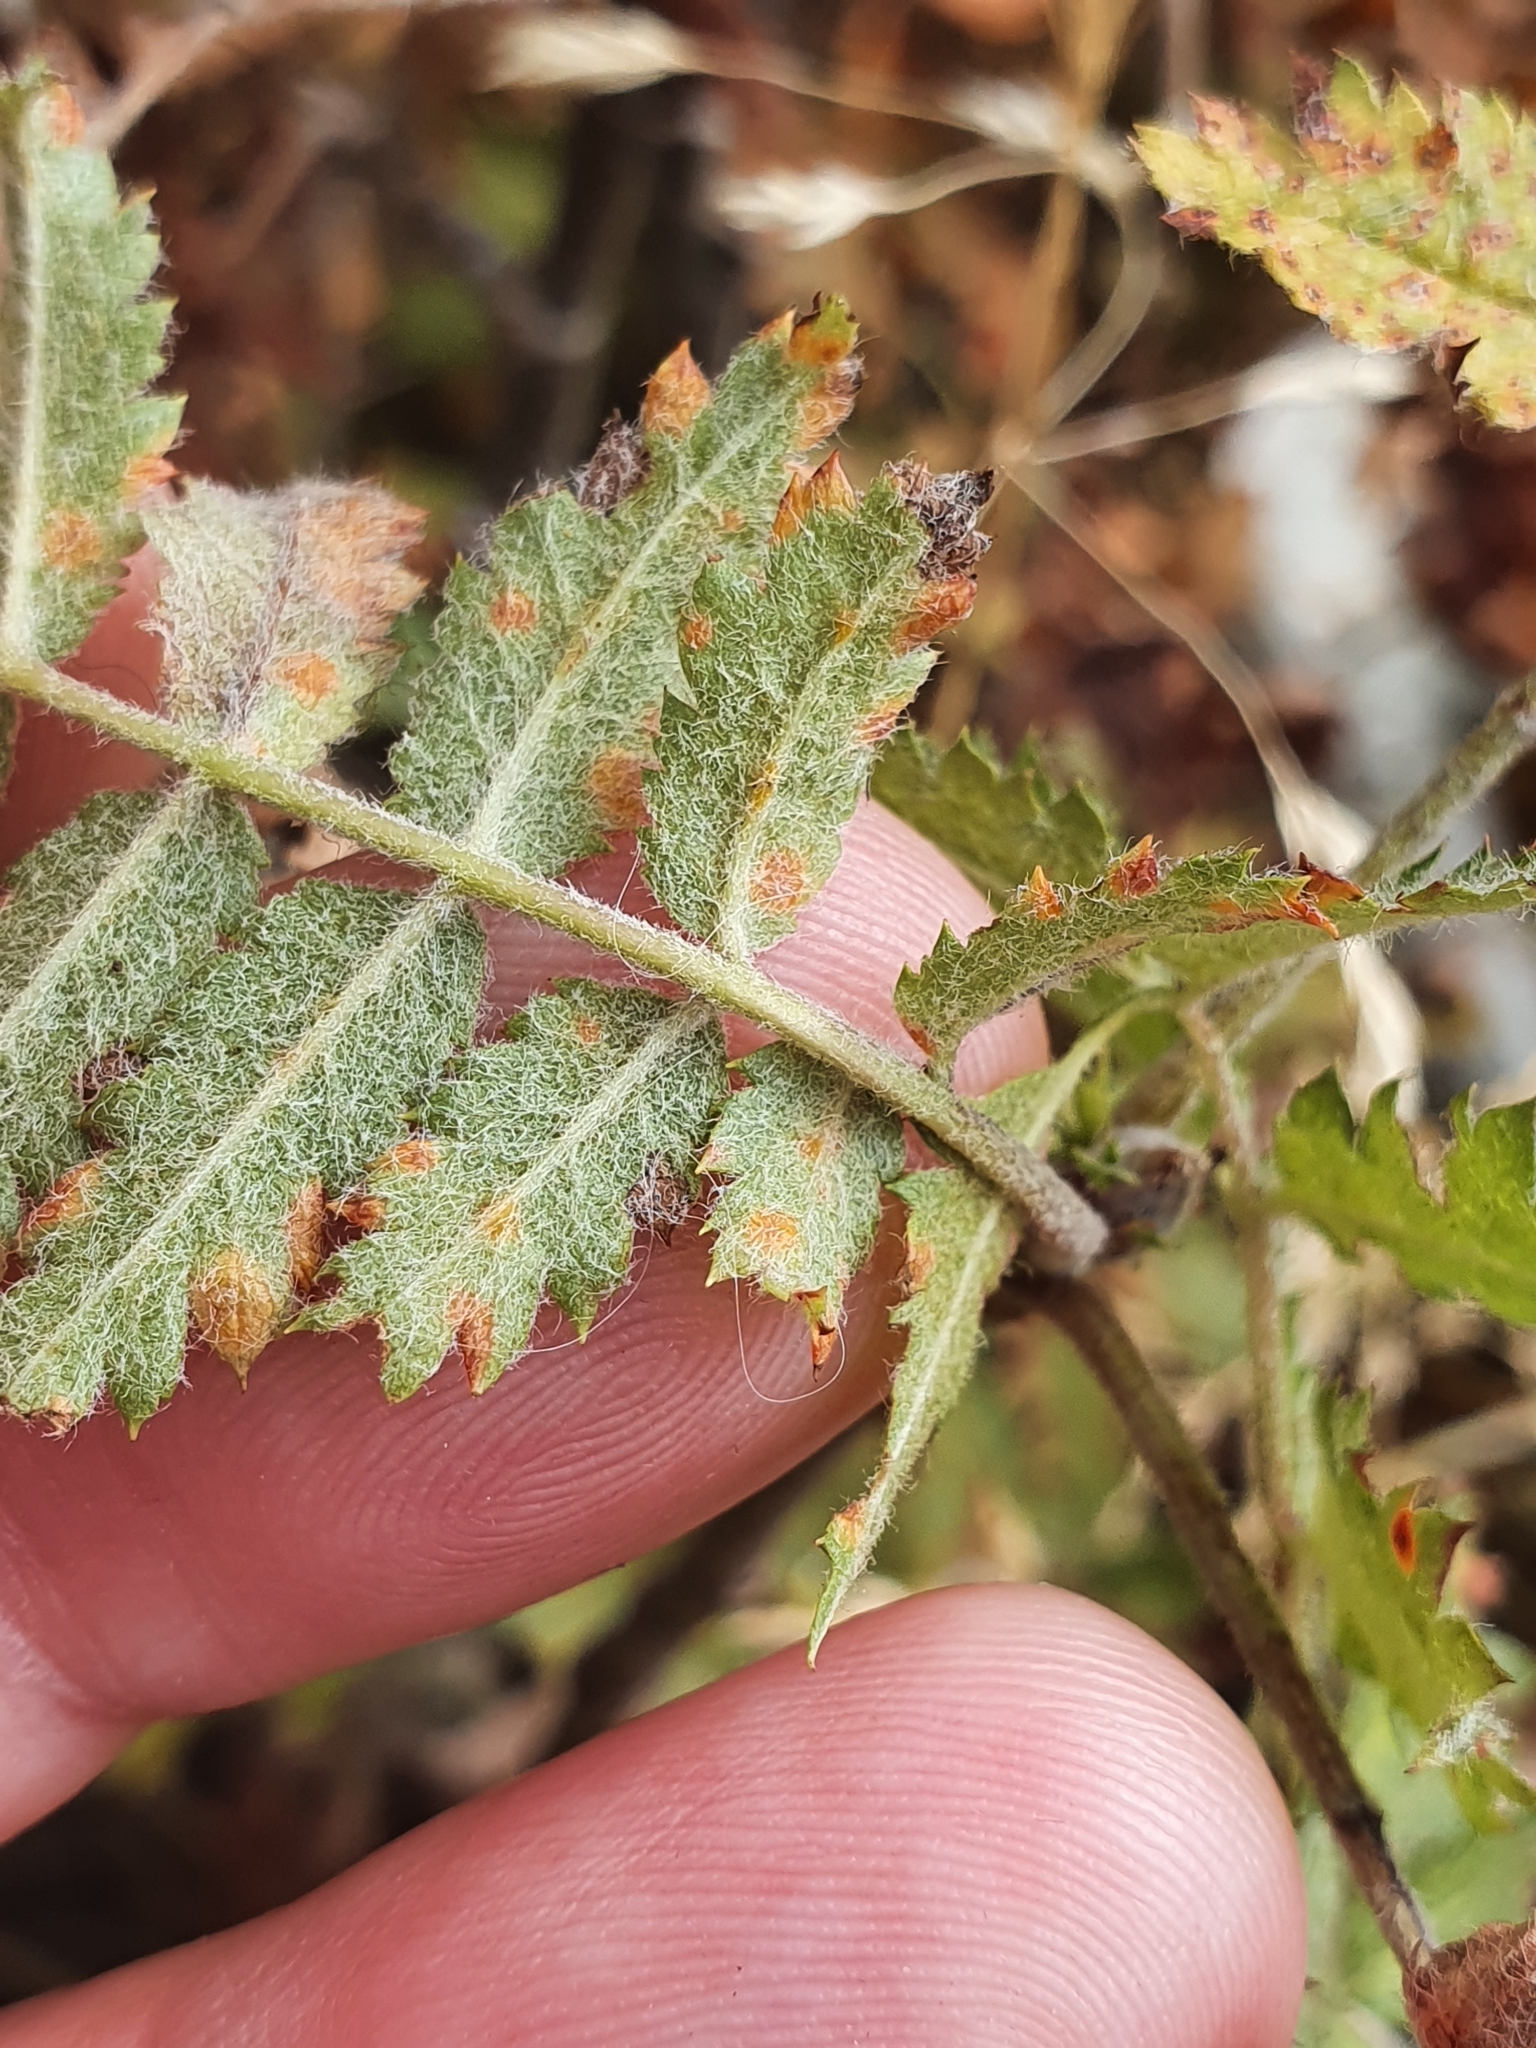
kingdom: Fungi
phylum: Basidiomycota
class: Pucciniomycetes
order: Pucciniales
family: Gymnosporangiaceae
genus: Gymnosporangium
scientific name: Gymnosporangium cornutum
